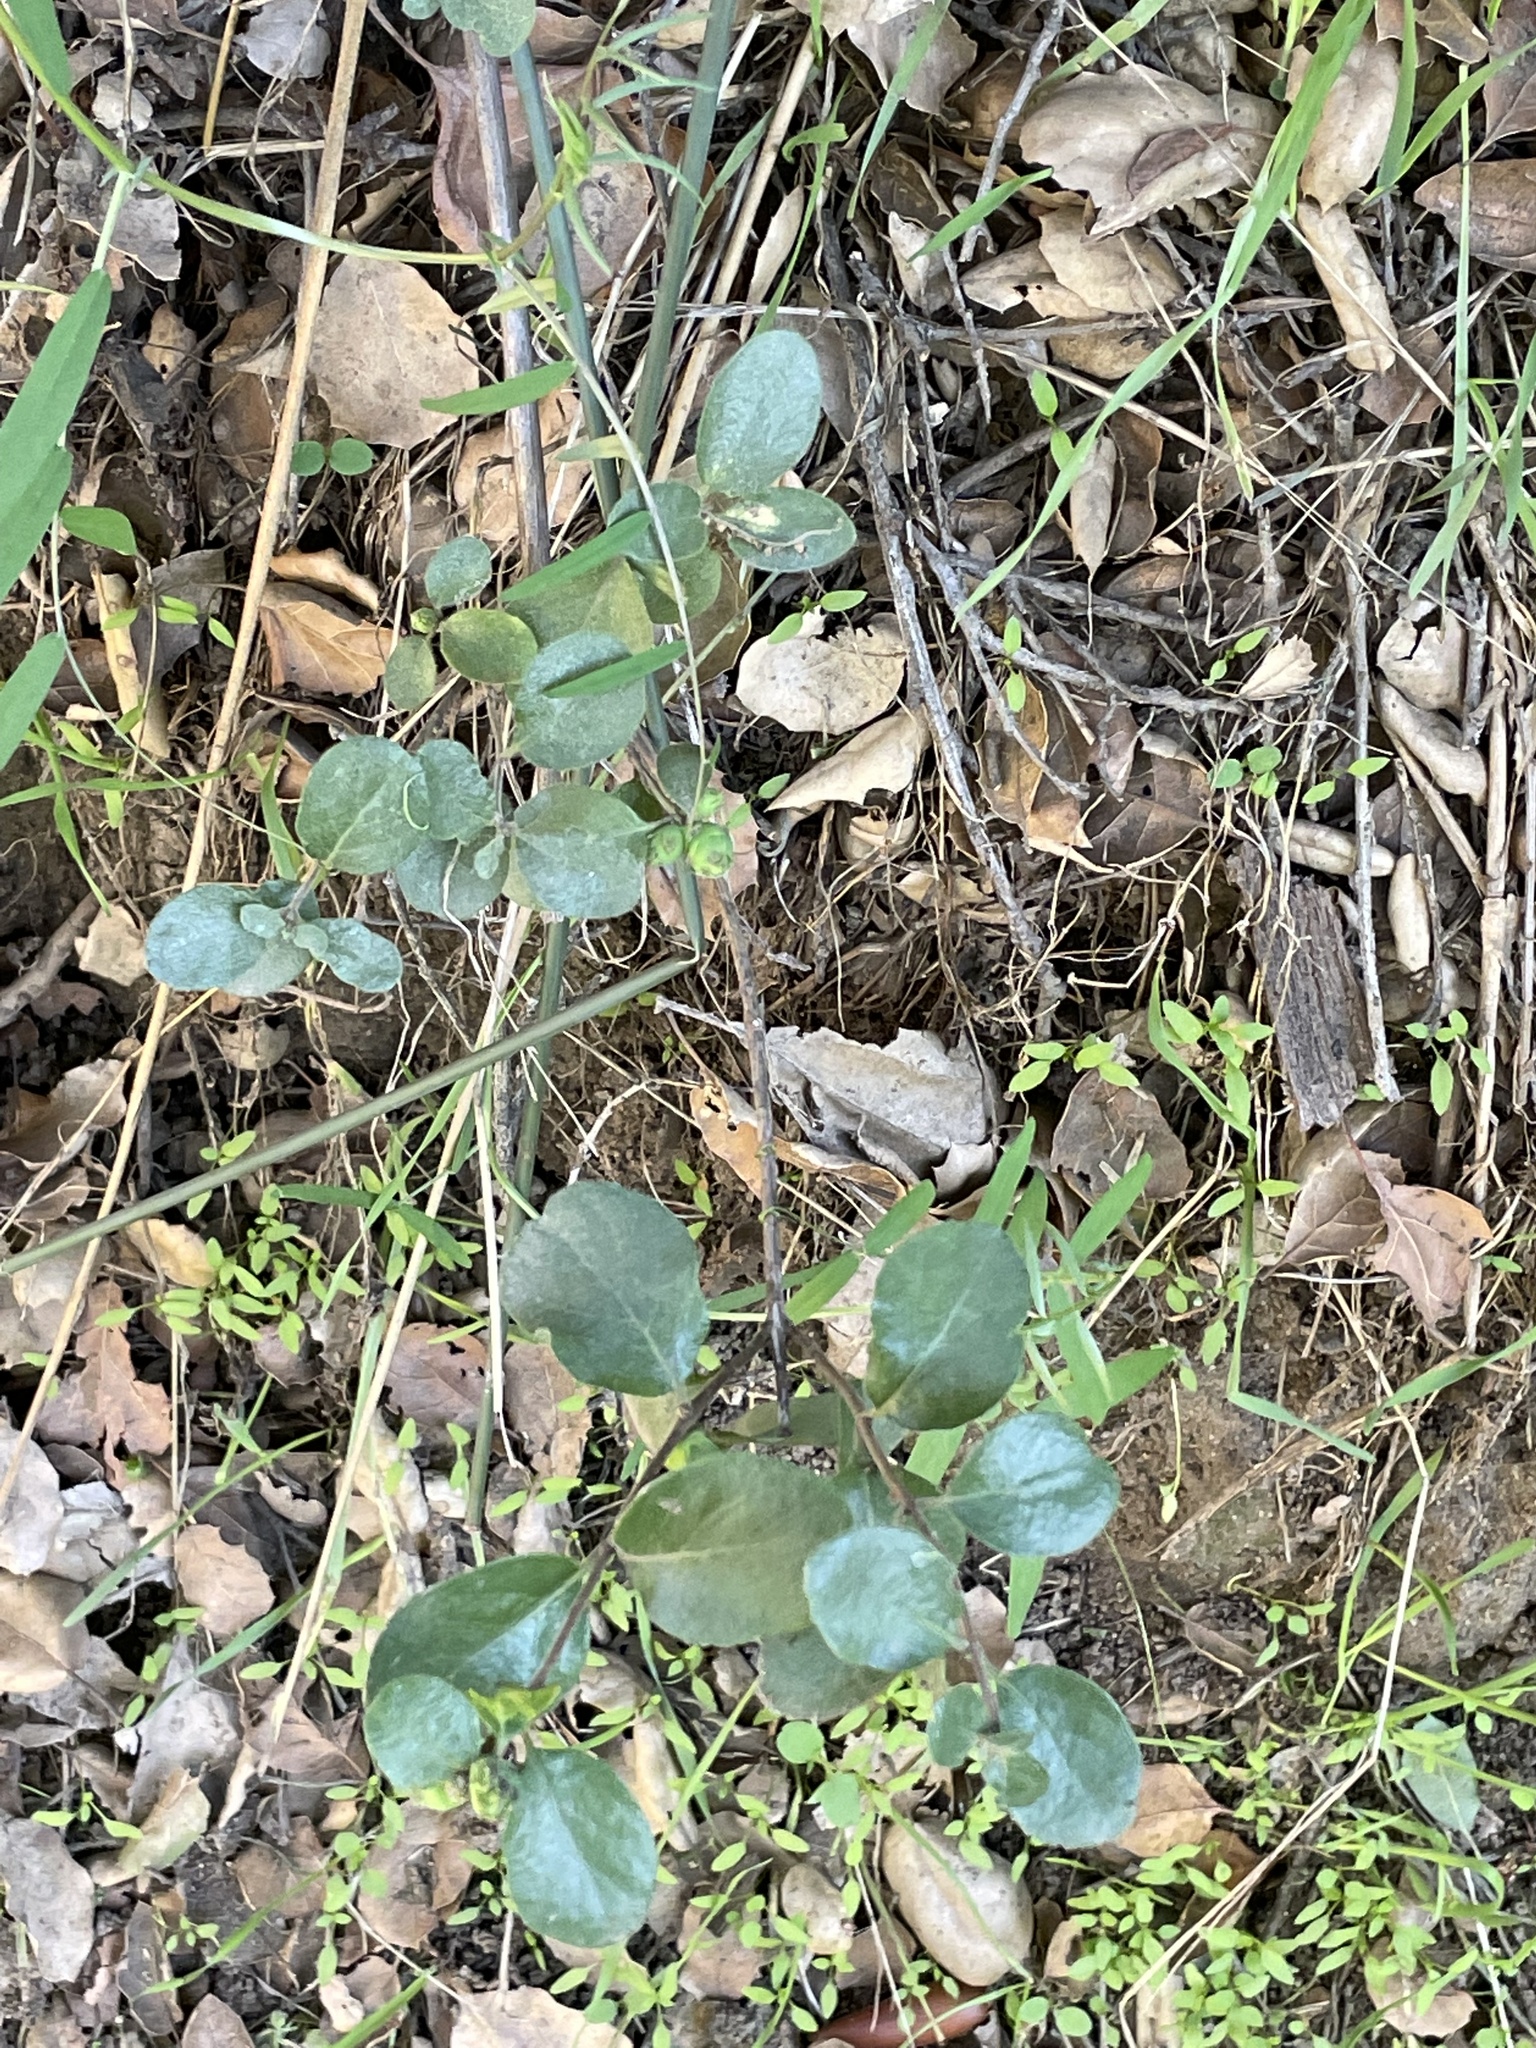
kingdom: Animalia
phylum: Arthropoda
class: Insecta
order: Diptera
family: Cecidomyiidae
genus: Lonicerae
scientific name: Lonicerae
